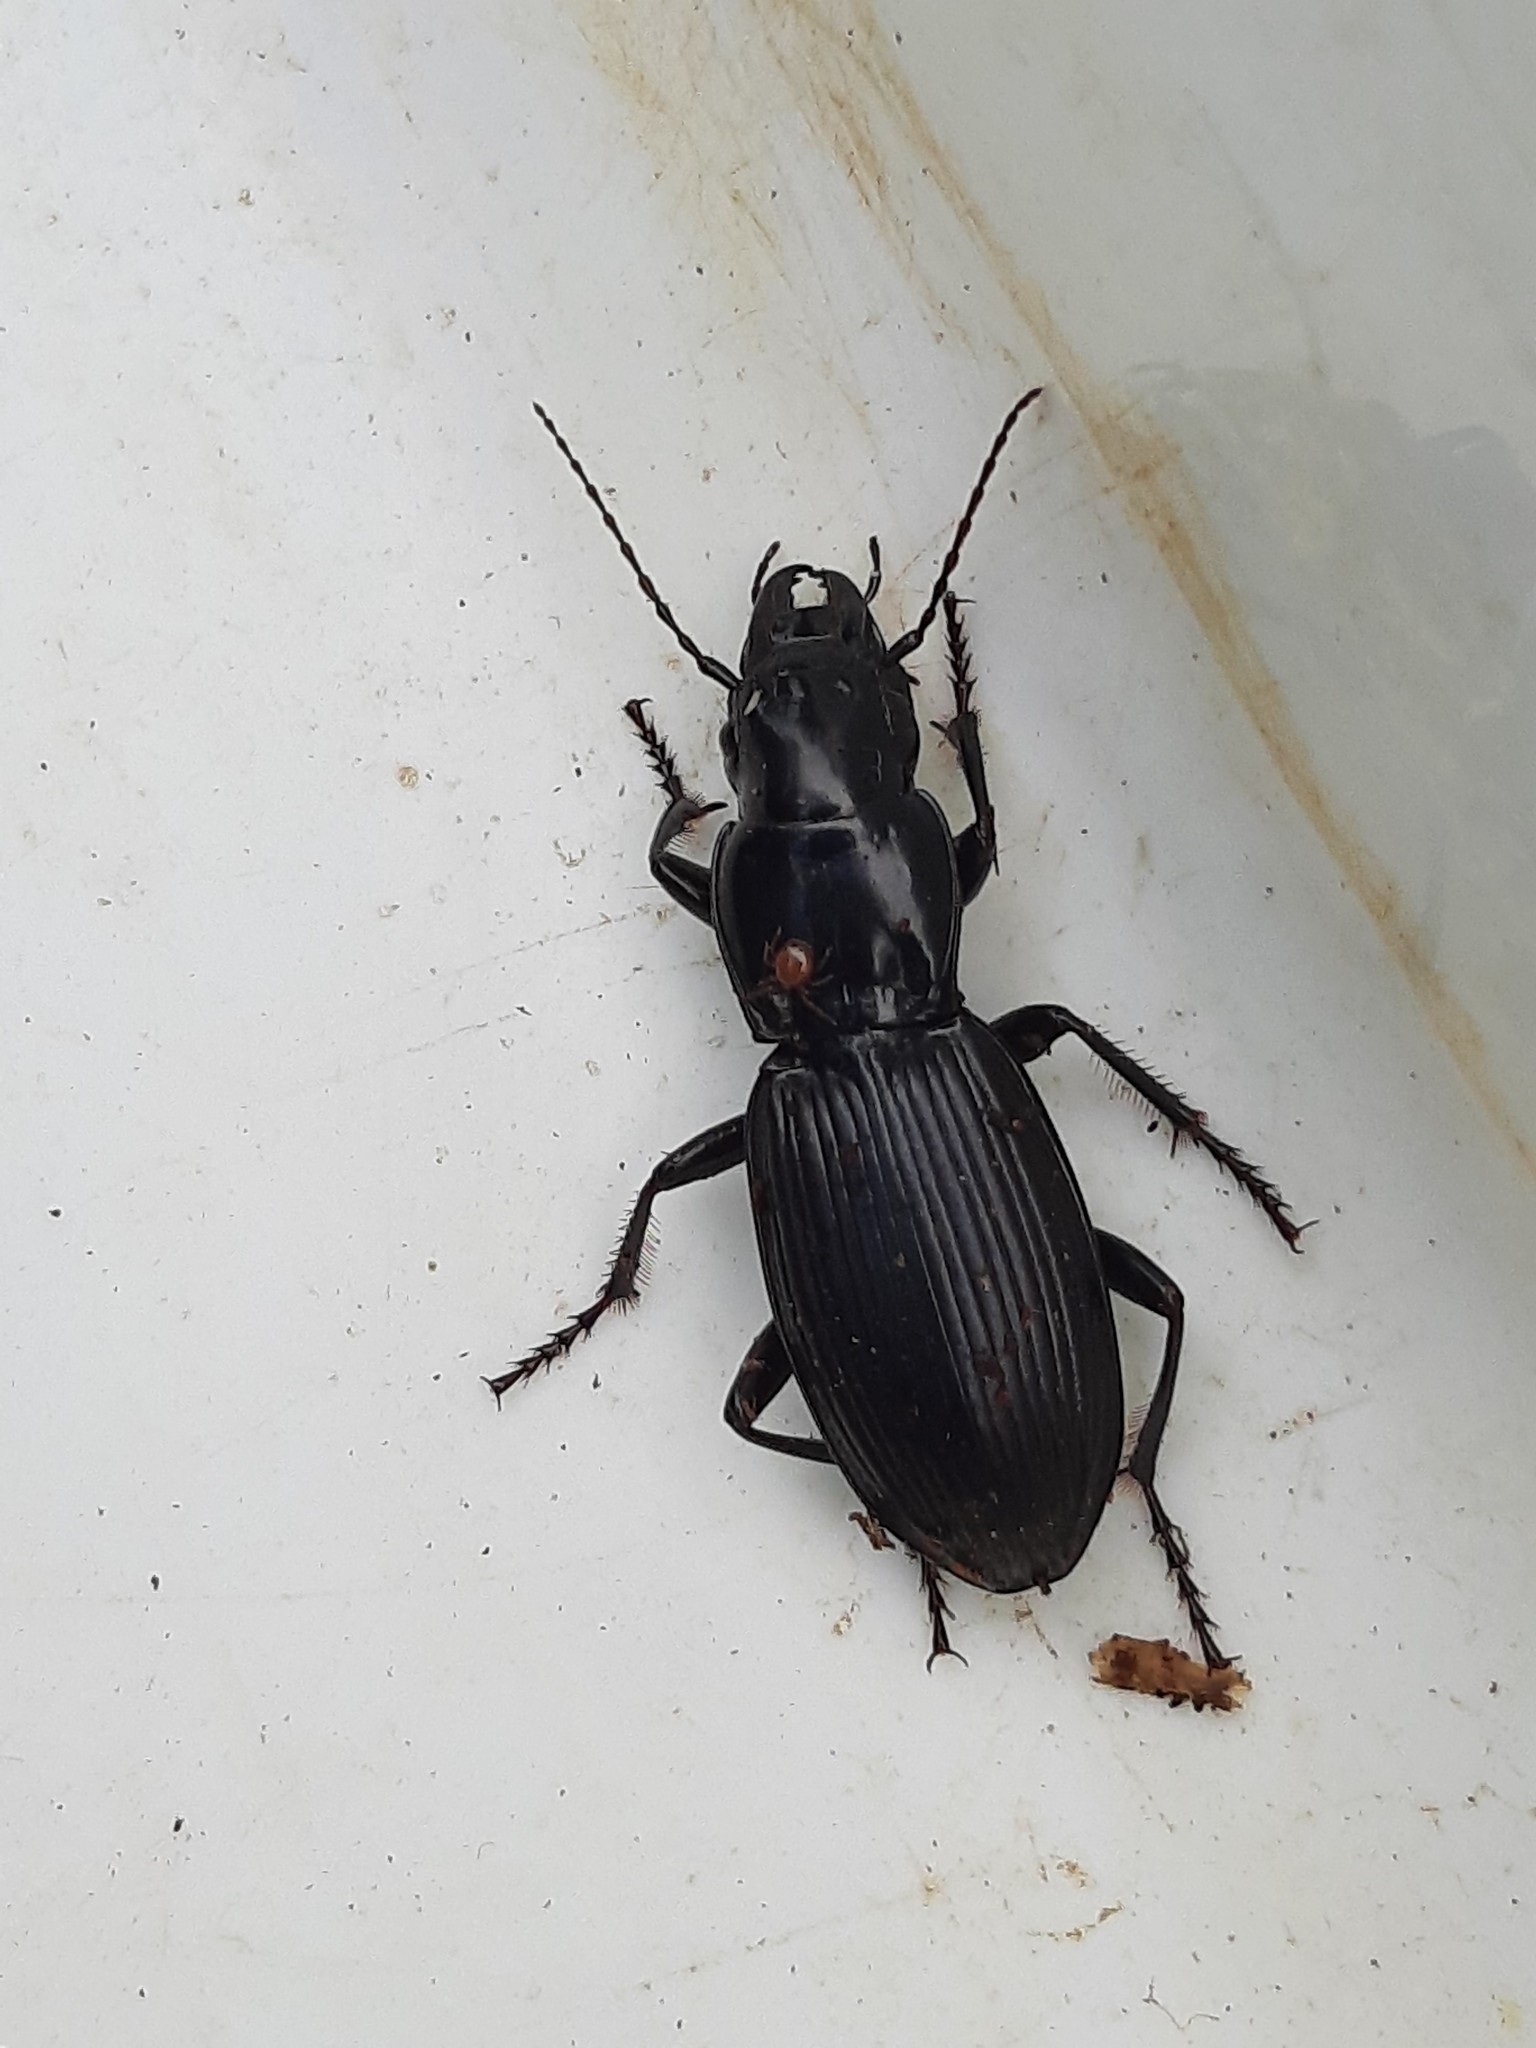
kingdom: Animalia
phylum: Arthropoda
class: Insecta
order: Coleoptera
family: Carabidae
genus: Plocamostethus
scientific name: Plocamostethus planiusculus
